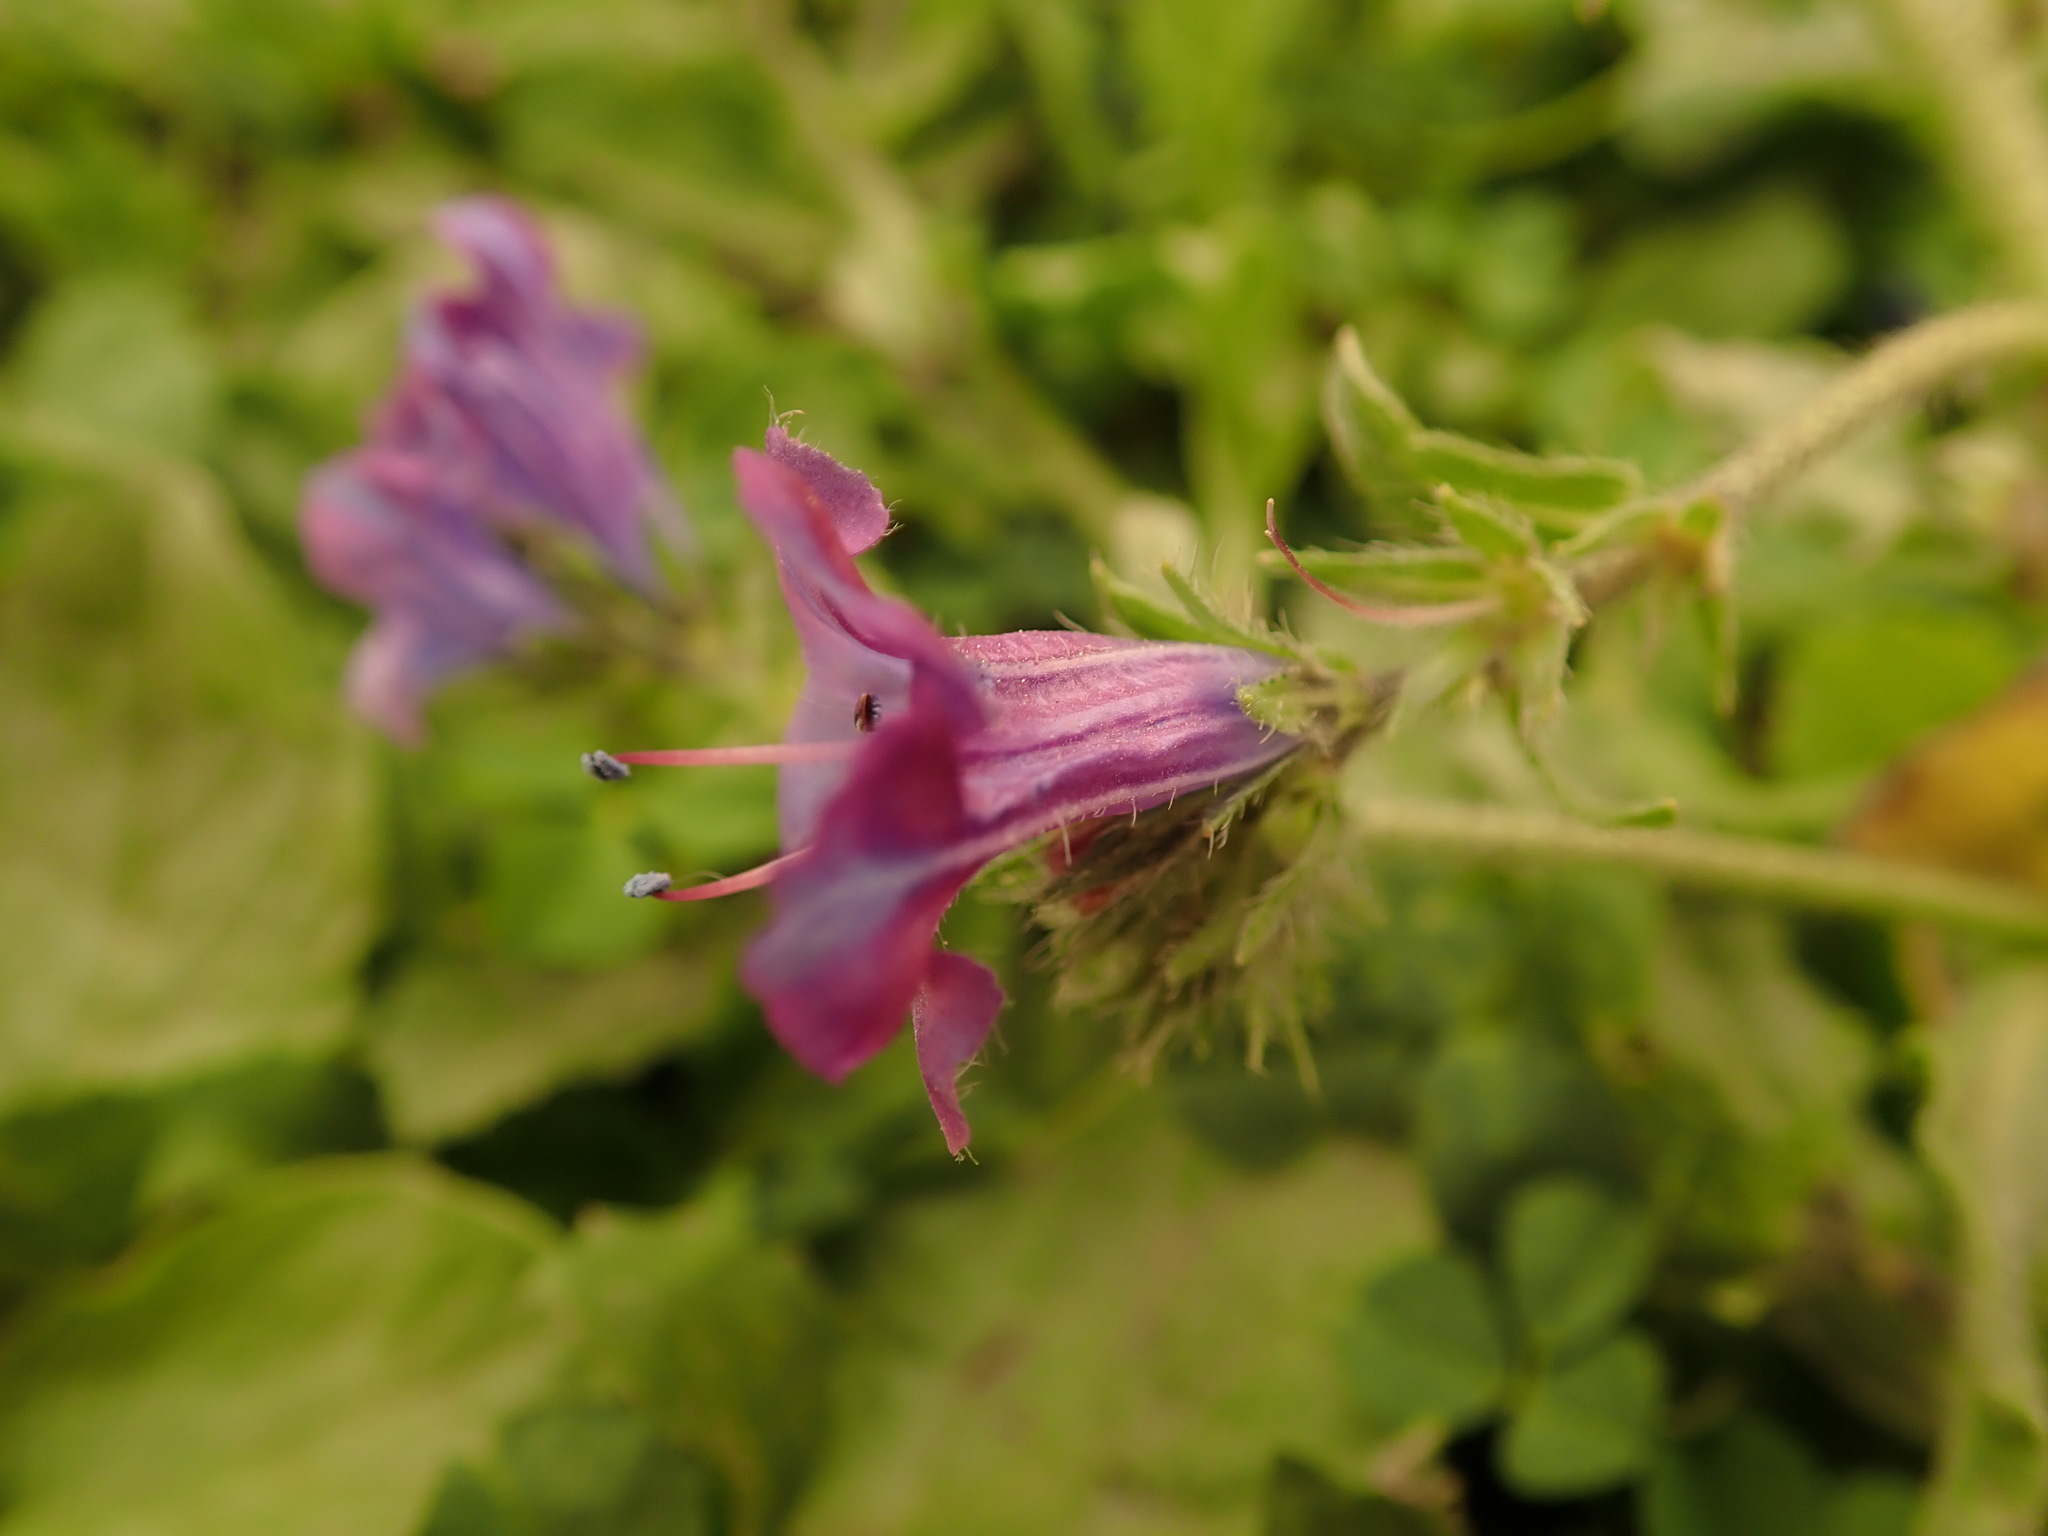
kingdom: Plantae
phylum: Tracheophyta
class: Magnoliopsida
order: Boraginales
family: Boraginaceae
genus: Echium
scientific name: Echium plantagineum
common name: Purple viper's-bugloss
